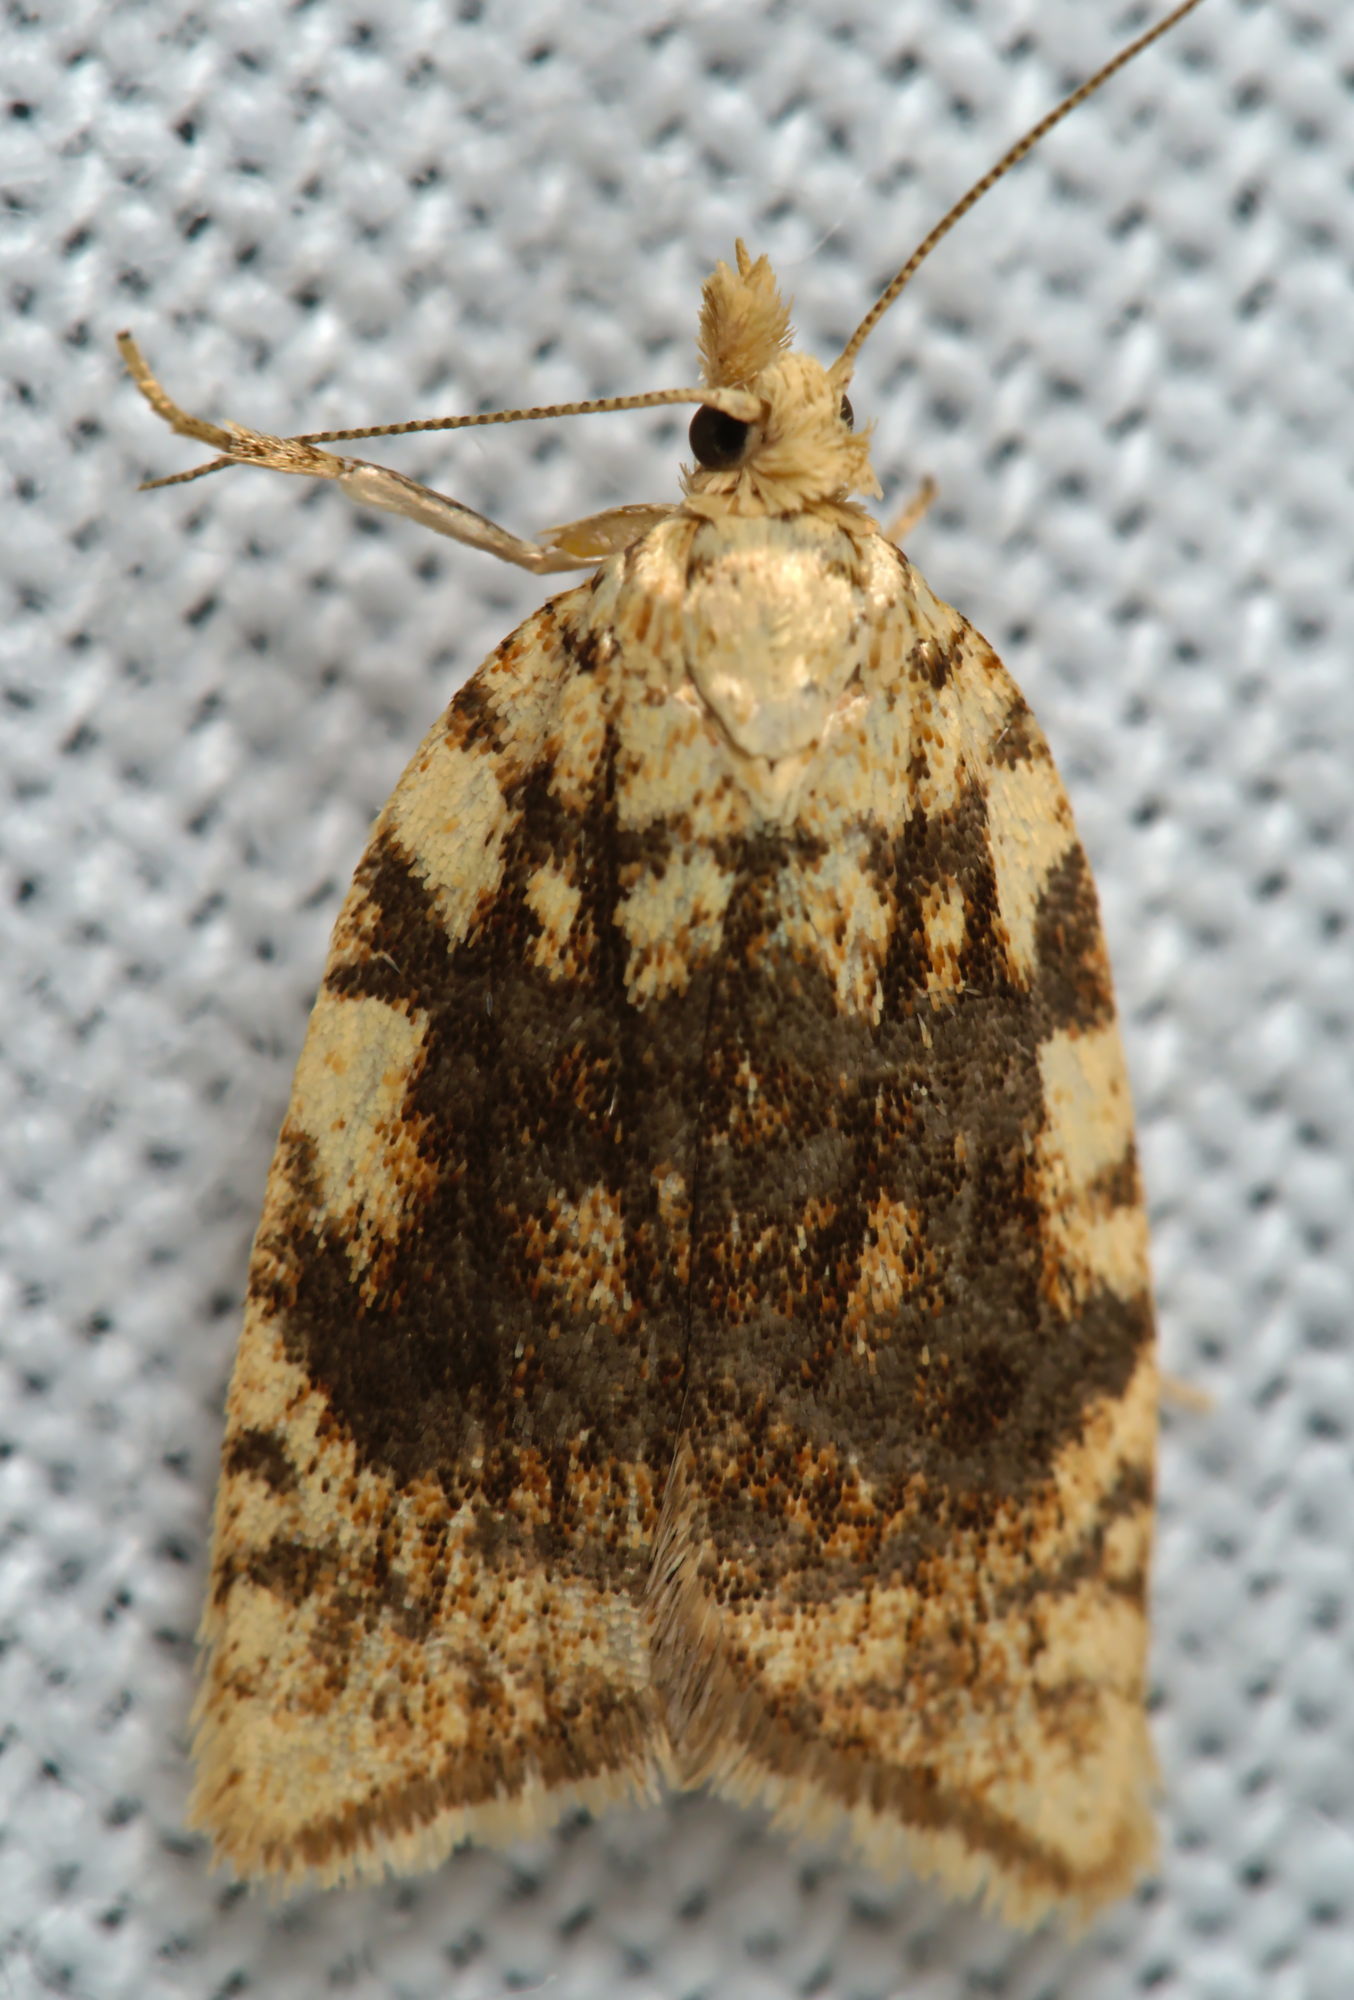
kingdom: Animalia
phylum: Arthropoda
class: Insecta
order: Lepidoptera
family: Tortricidae
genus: Aleimma
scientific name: Aleimma loeflingiana
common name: Yellow oak button
